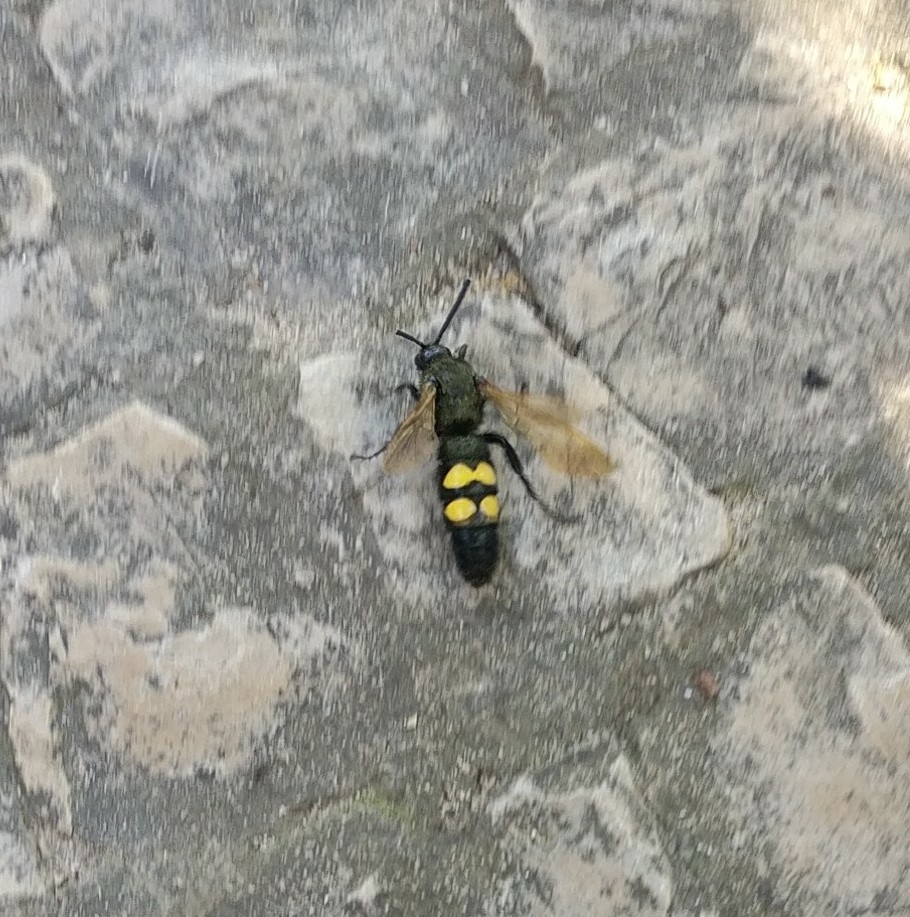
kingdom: Animalia
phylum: Arthropoda
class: Insecta
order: Hymenoptera
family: Scoliidae
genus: Megascolia
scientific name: Megascolia maculata
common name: Mammoth wasp
